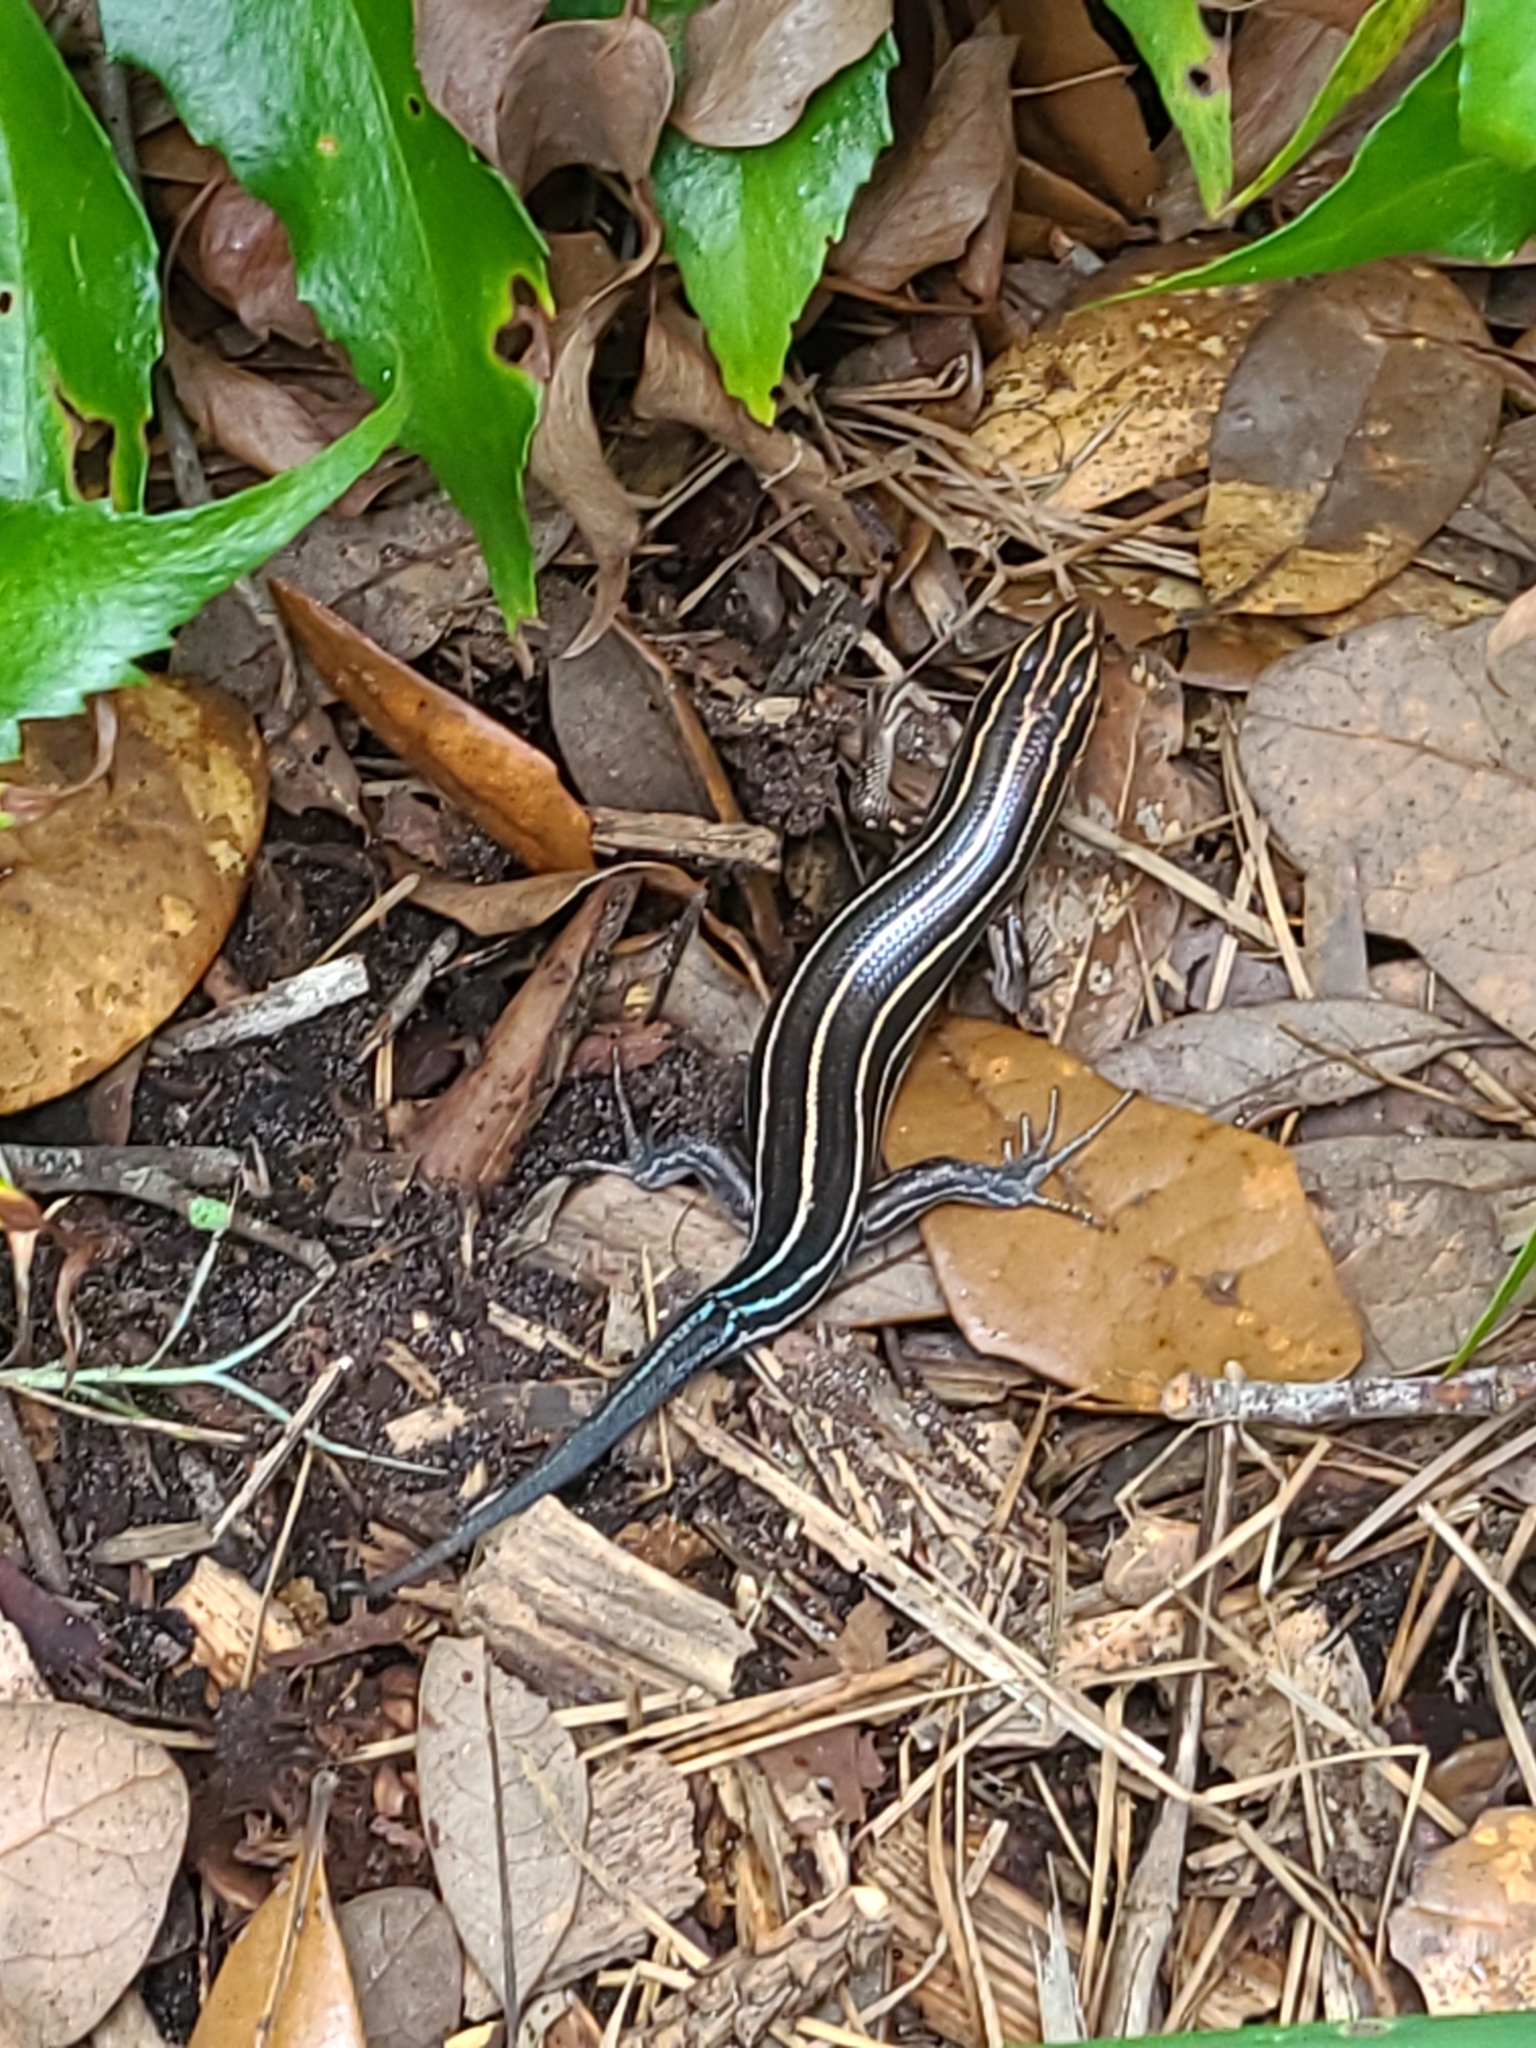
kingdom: Animalia
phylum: Chordata
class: Squamata
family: Scincidae
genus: Plestiodon
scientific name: Plestiodon laticeps
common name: Broadhead skink
